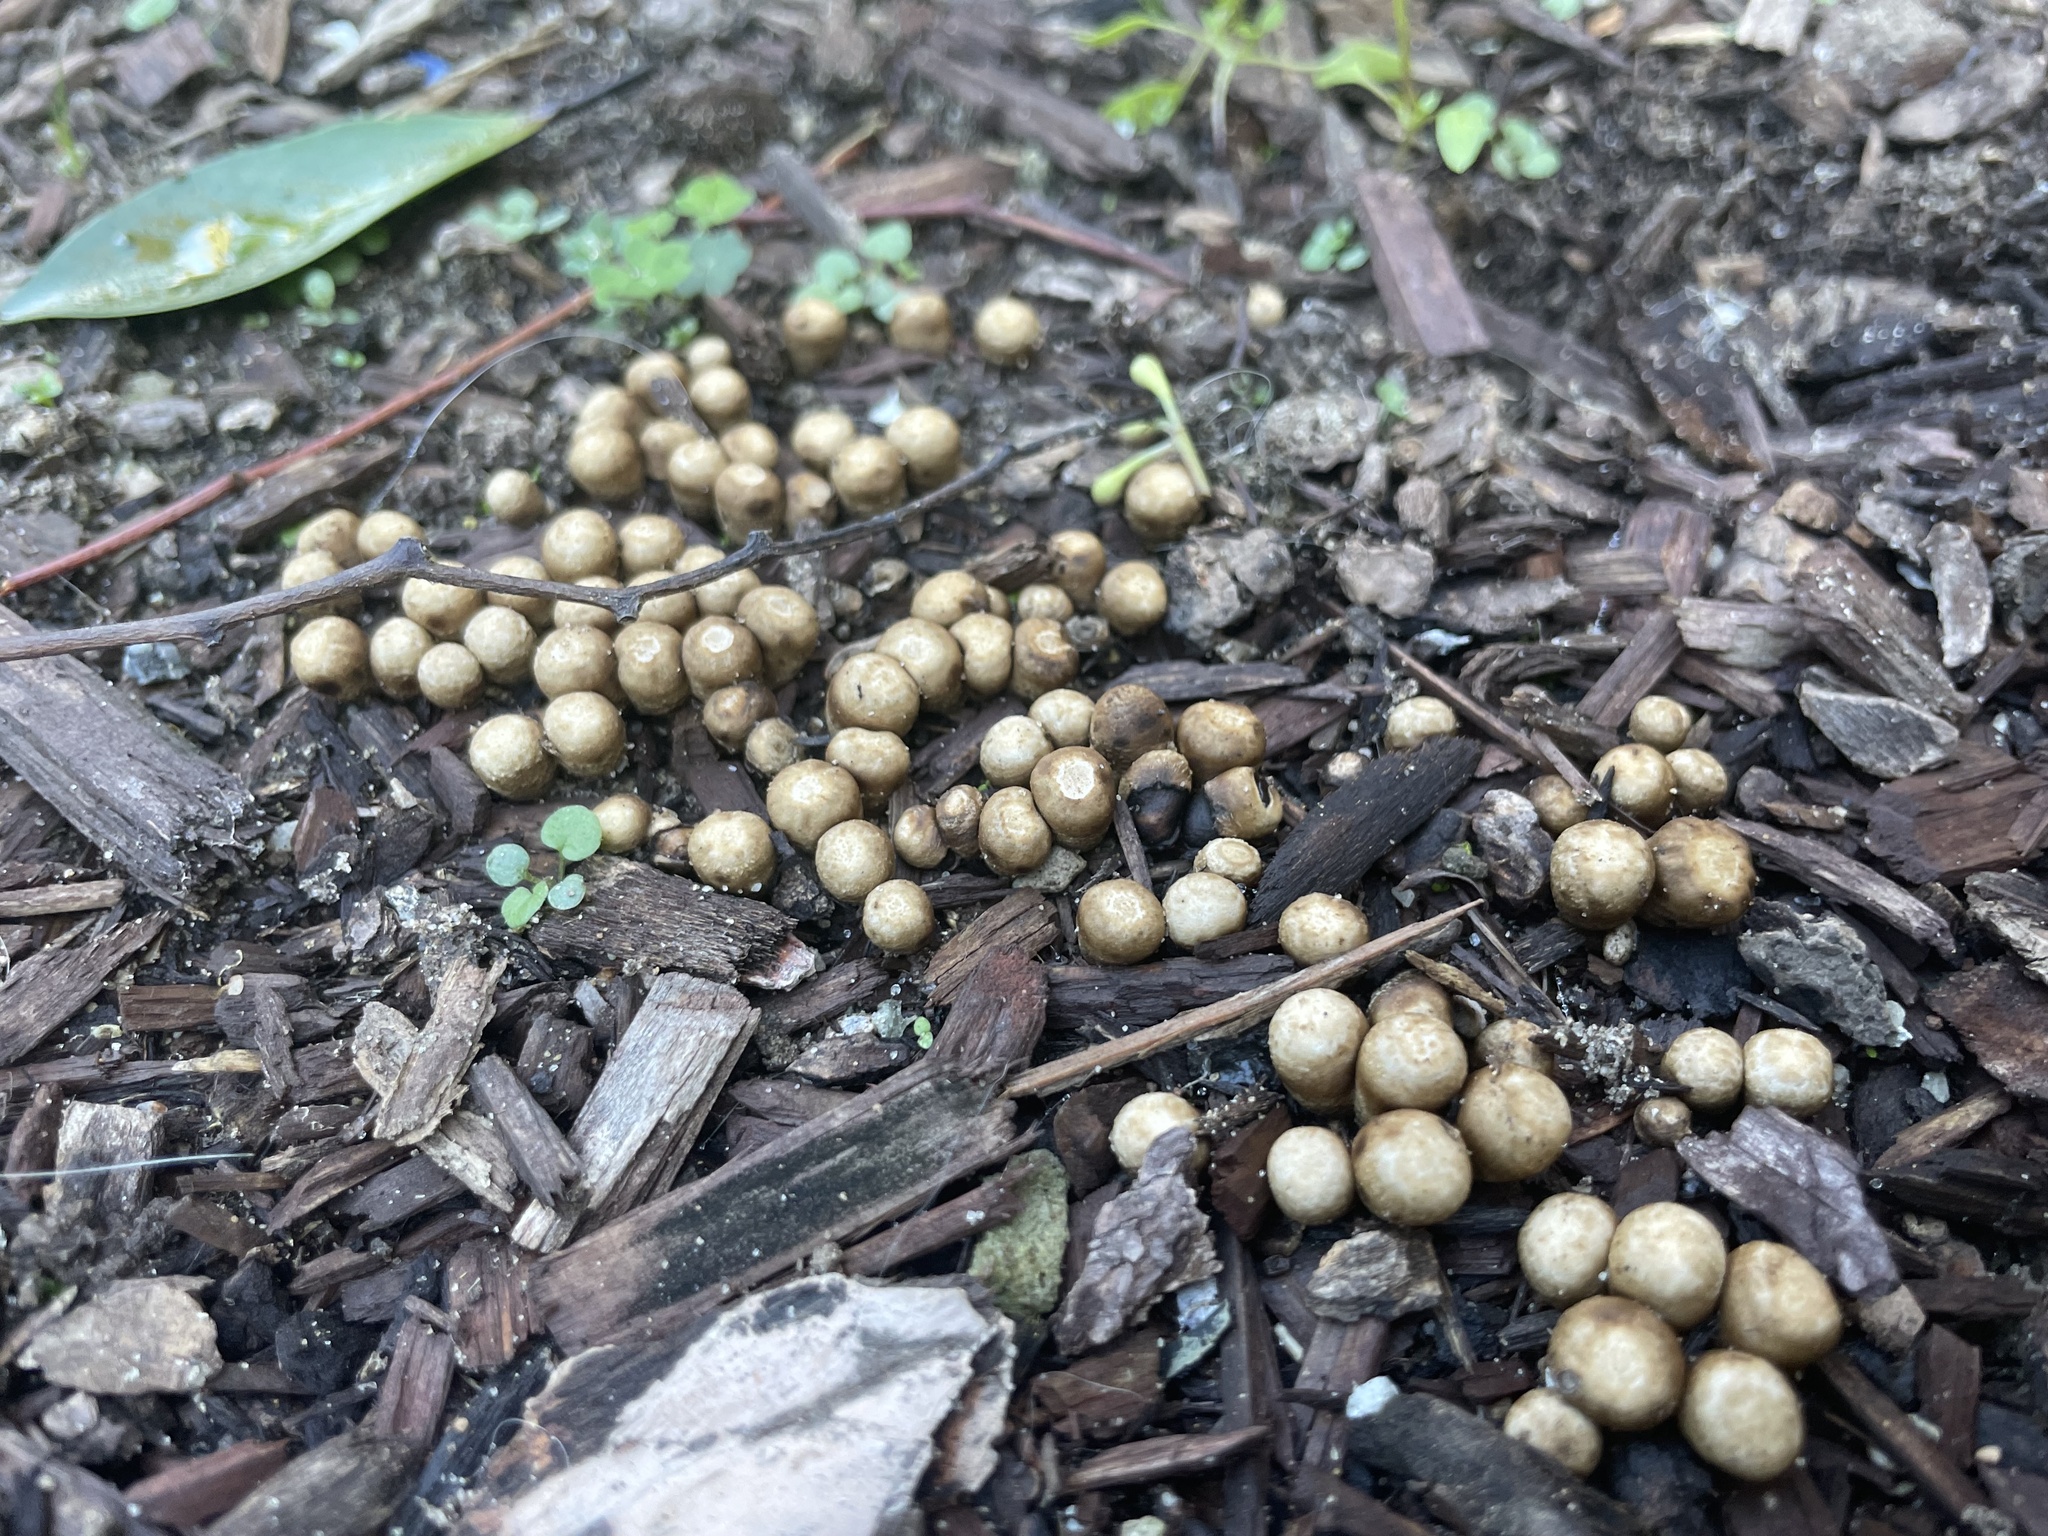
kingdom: Fungi
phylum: Basidiomycota
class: Agaricomycetes
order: Agaricales
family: Agaricaceae
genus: Cyathus
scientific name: Cyathus olla
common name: Field bird's nest
